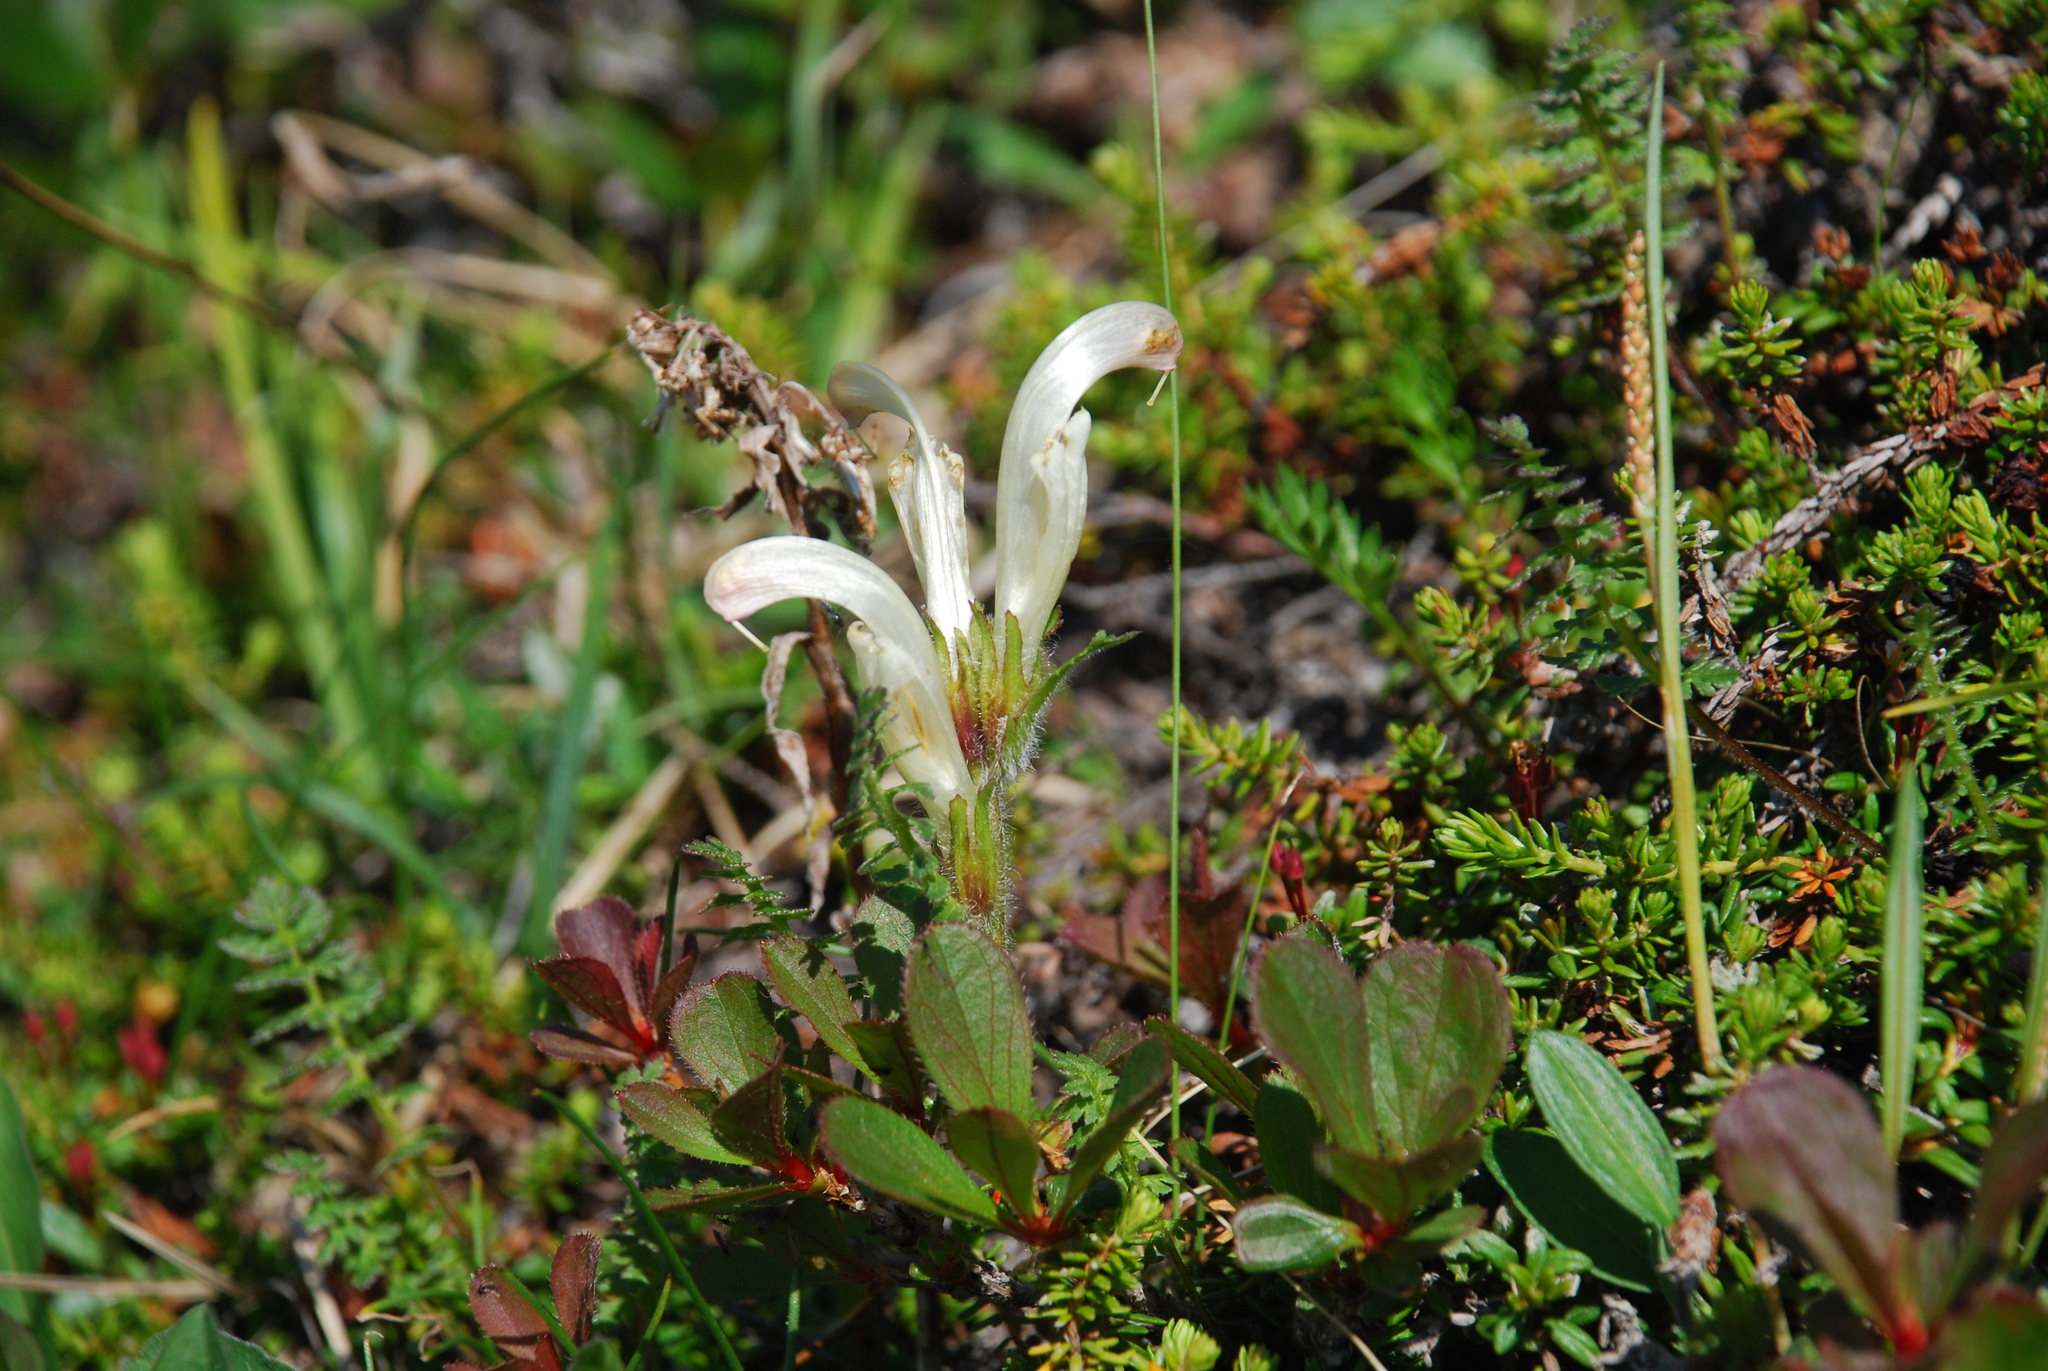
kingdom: Plantae
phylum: Tracheophyta
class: Magnoliopsida
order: Lamiales
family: Orobanchaceae
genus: Pedicularis
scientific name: Pedicularis capitata
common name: Capitate lousewort
